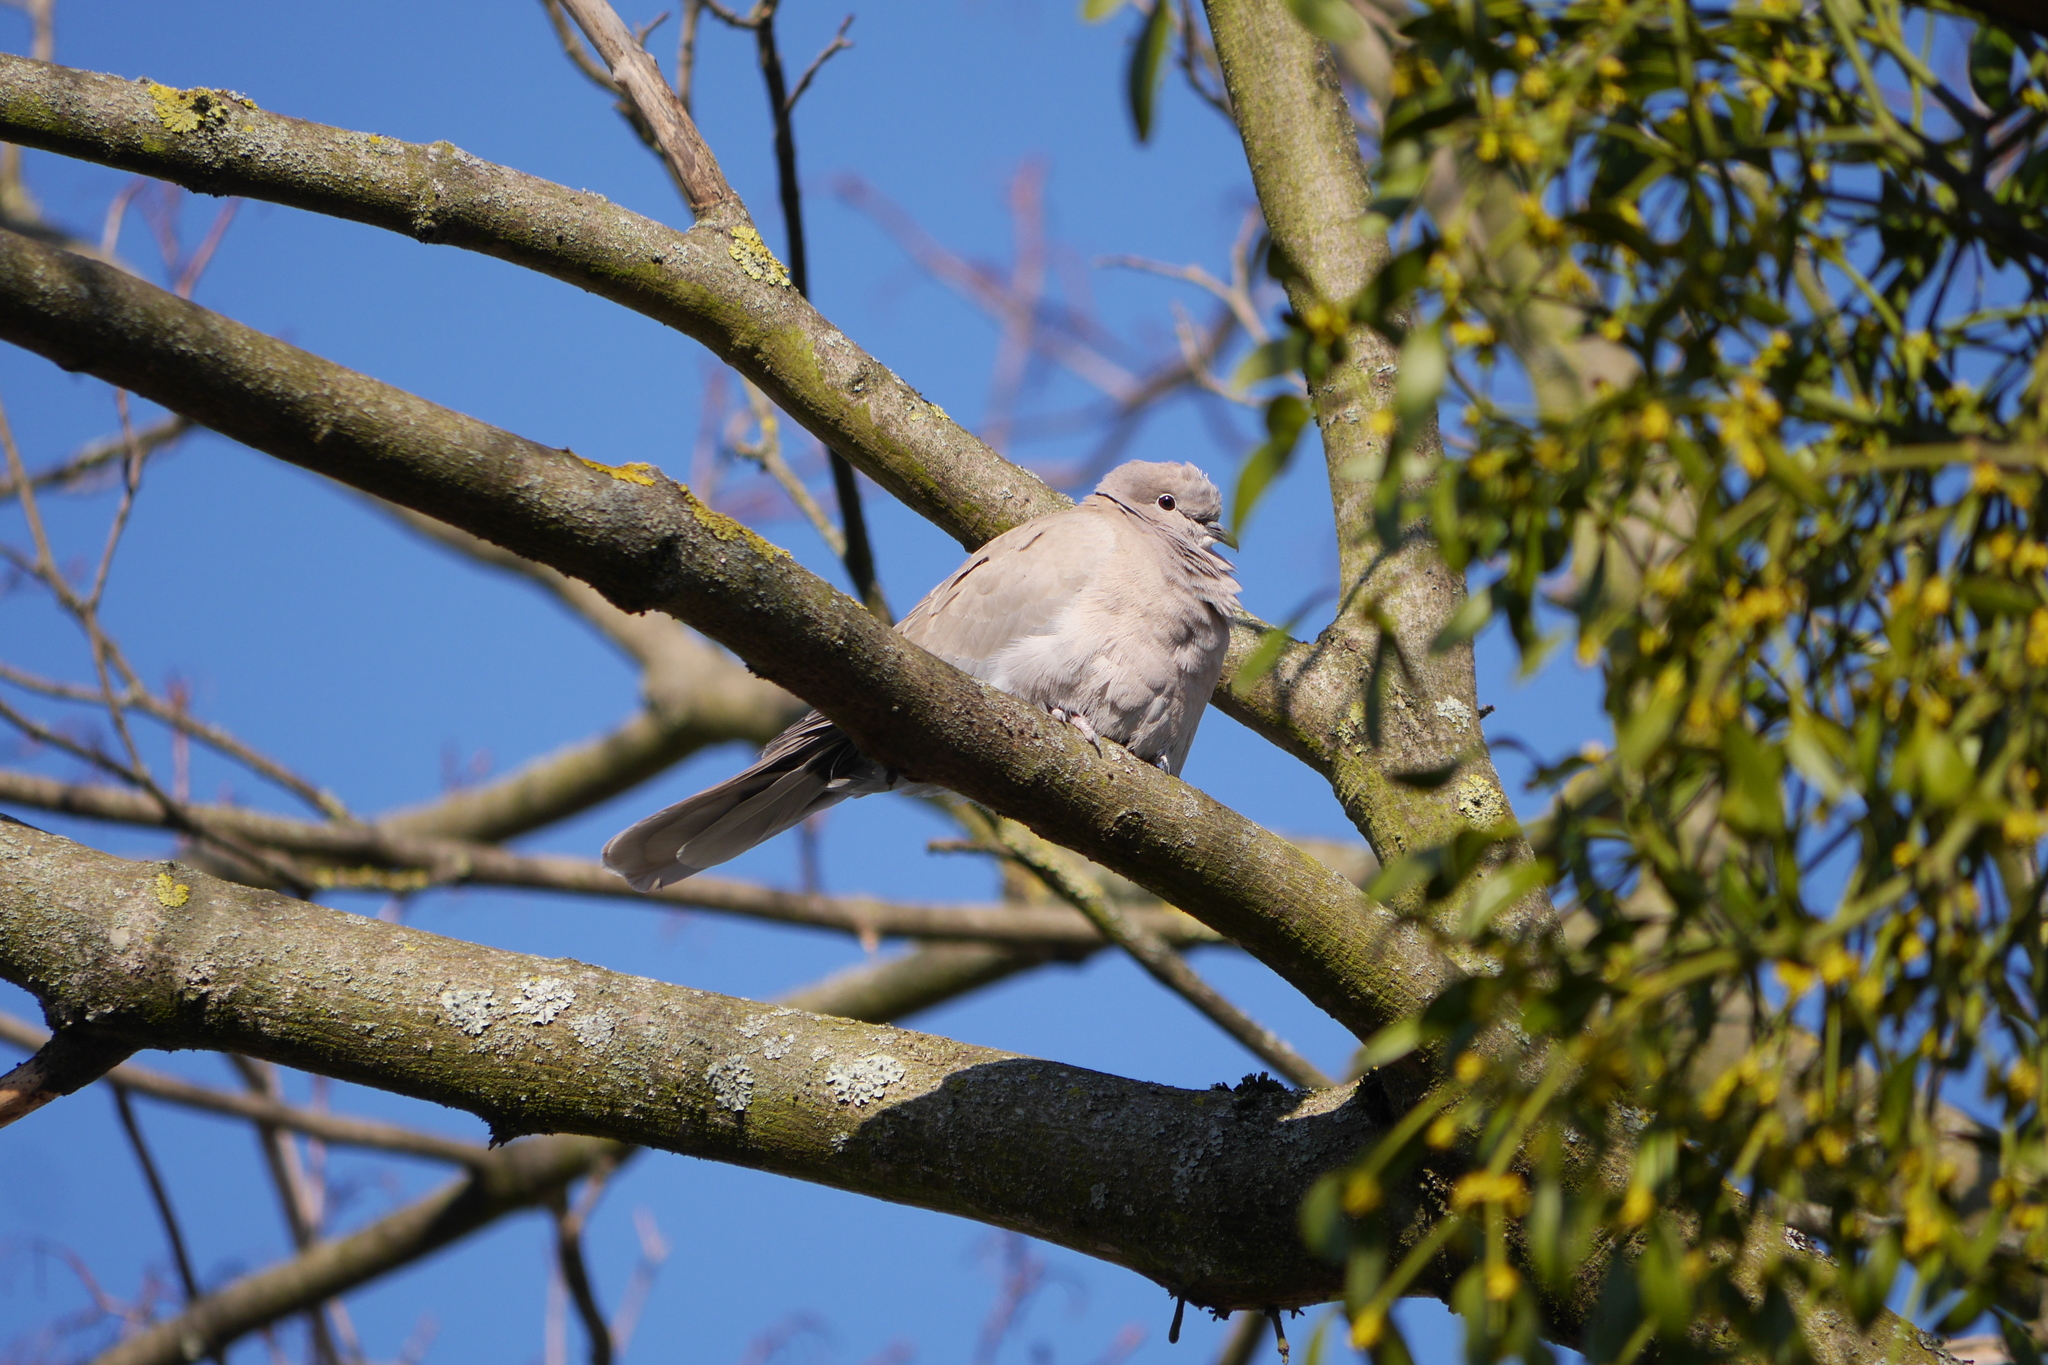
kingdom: Animalia
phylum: Chordata
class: Aves
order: Columbiformes
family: Columbidae
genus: Streptopelia
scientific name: Streptopelia decaocto
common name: Eurasian collared dove
